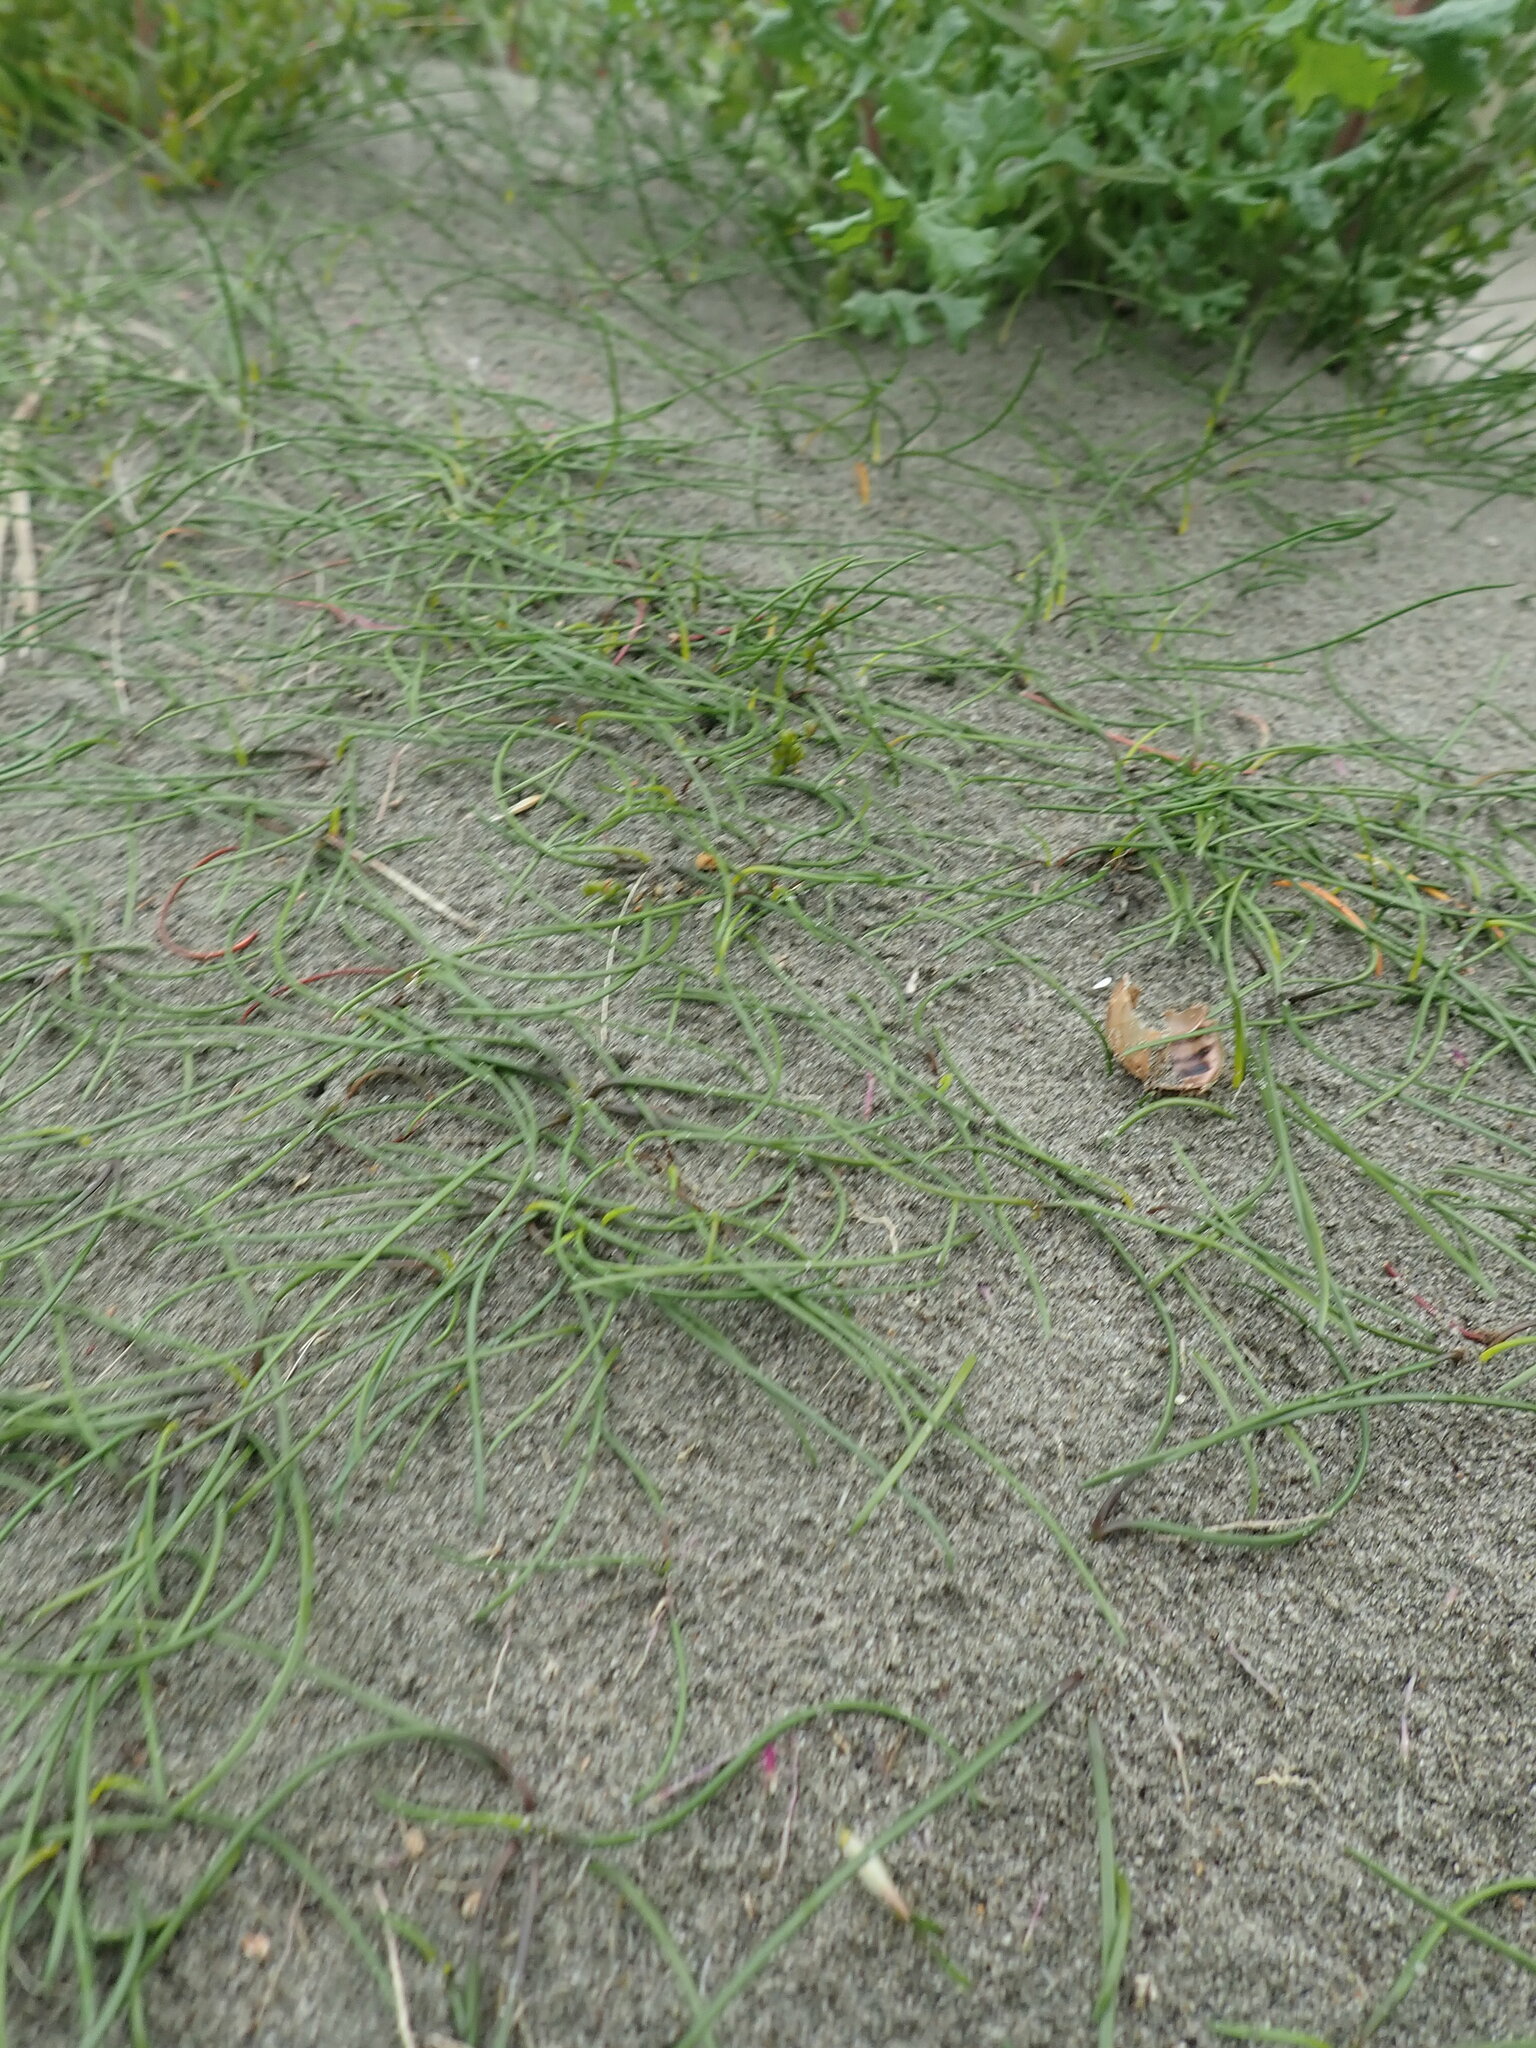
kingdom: Plantae
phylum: Tracheophyta
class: Liliopsida
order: Alismatales
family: Juncaginaceae
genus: Triglochin
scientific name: Triglochin striata
